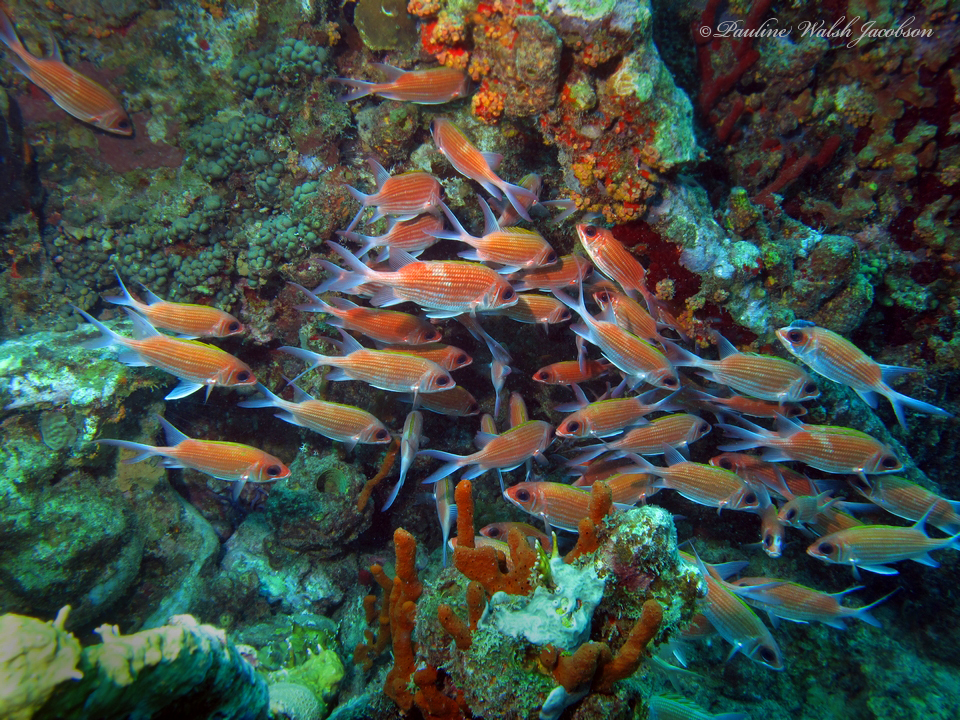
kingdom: Animalia
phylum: Chordata
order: Beryciformes
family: Holocentridae
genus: Holocentrus
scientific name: Holocentrus adscensionis
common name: Squirrelfish
